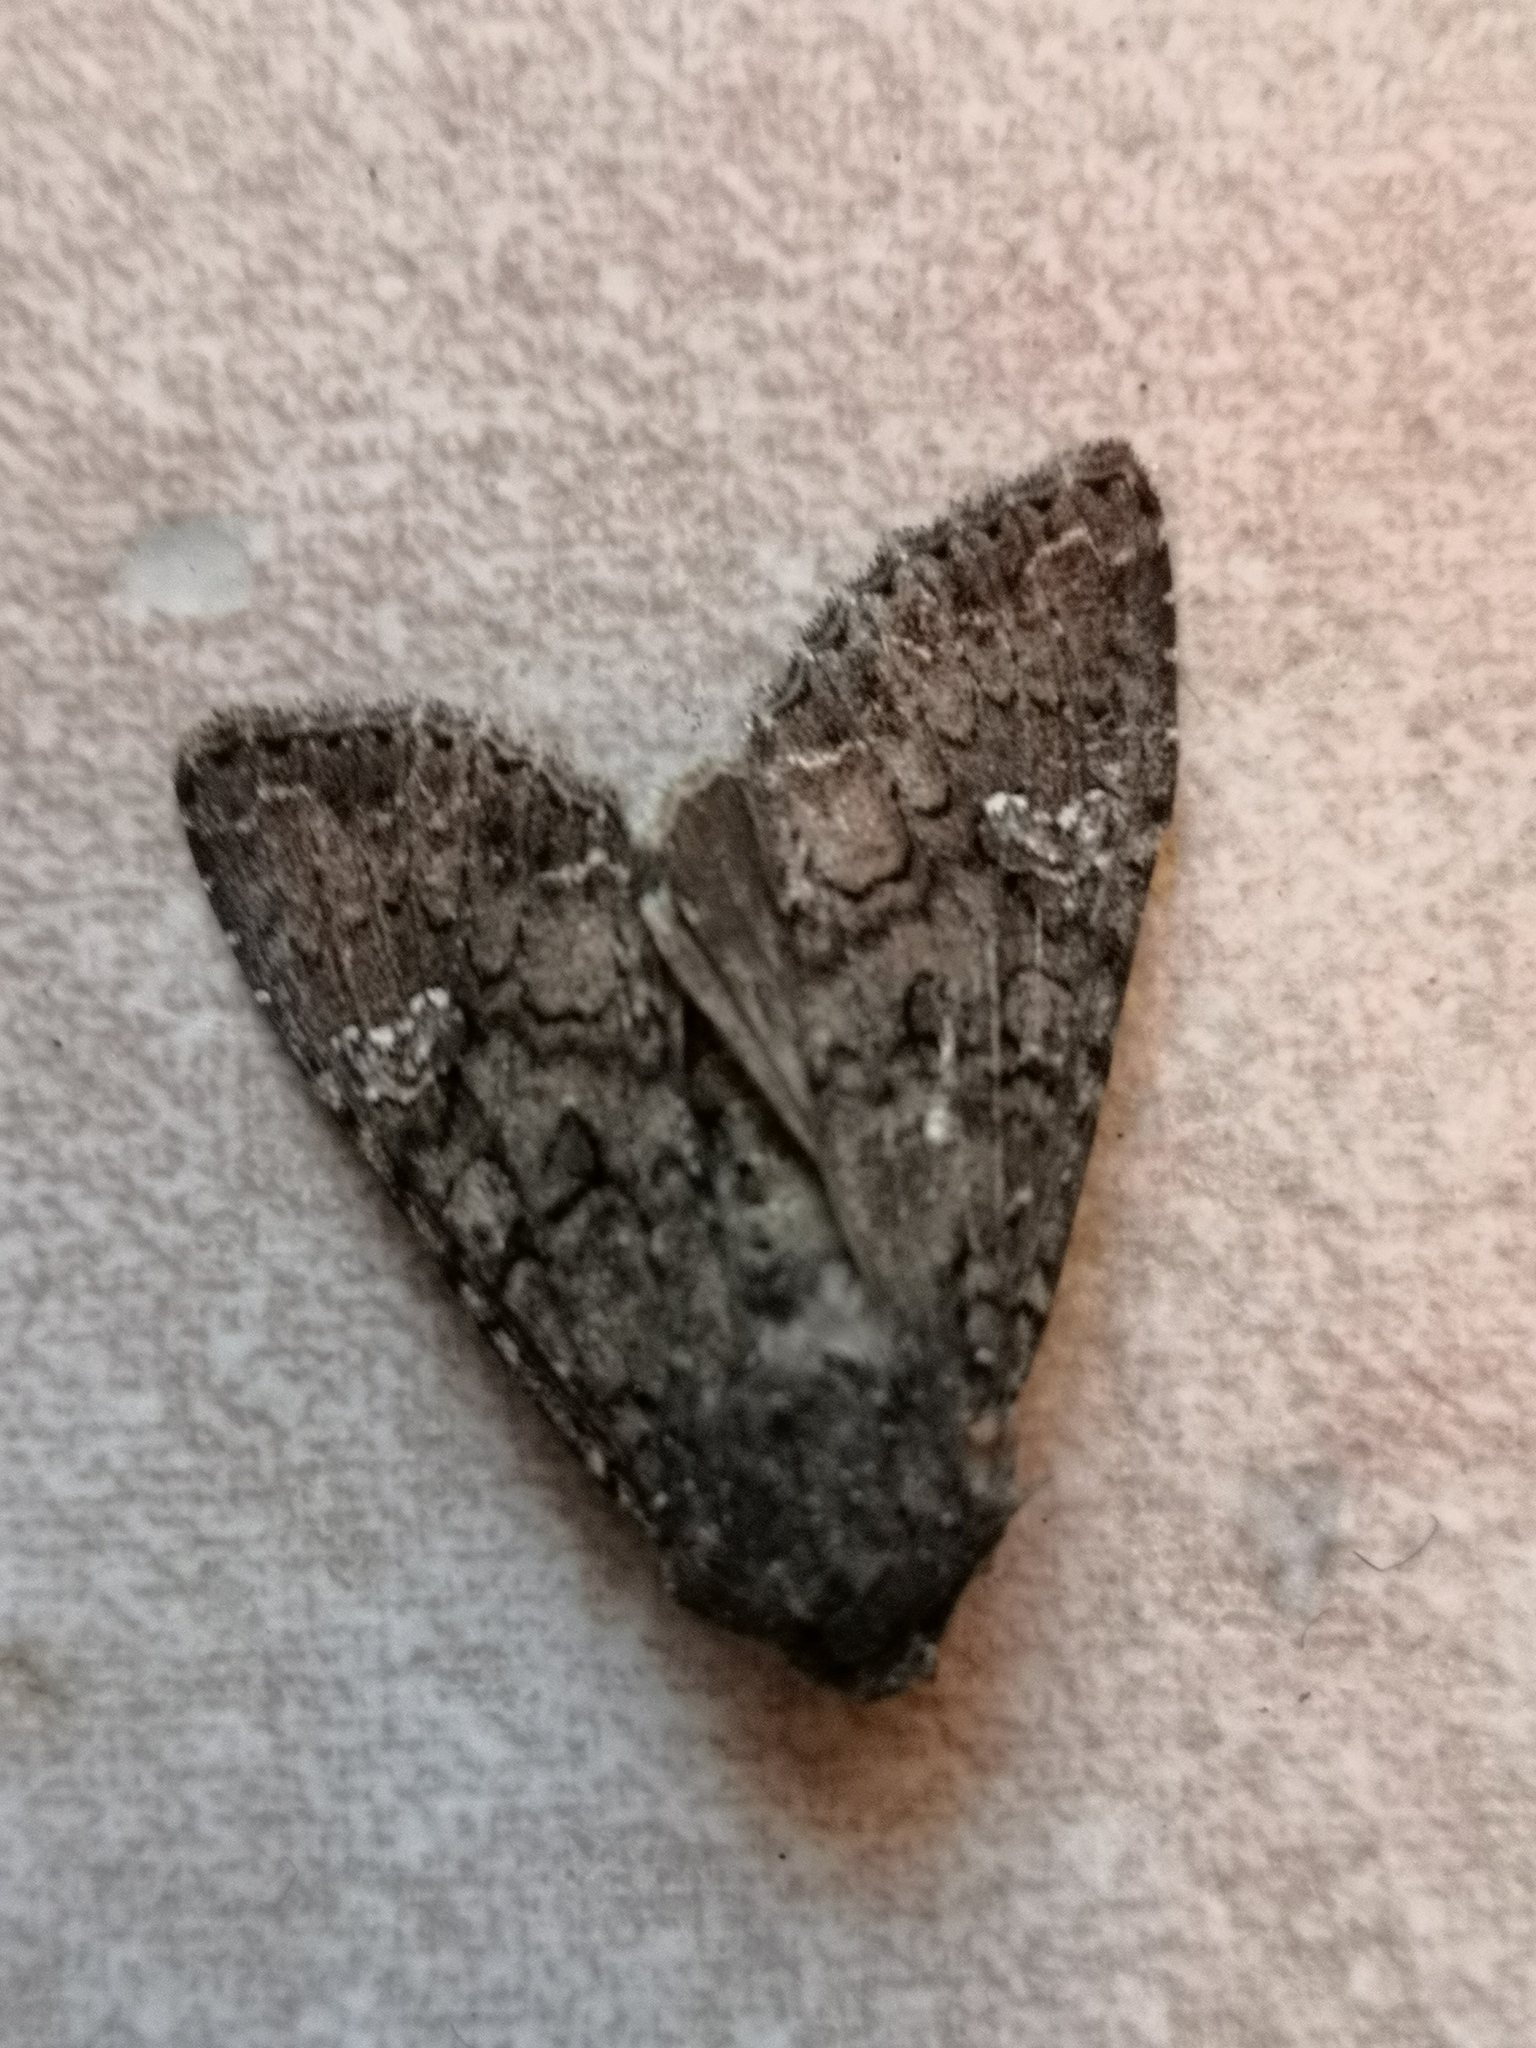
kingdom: Animalia
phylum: Arthropoda
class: Insecta
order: Lepidoptera
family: Noctuidae
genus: Mamestra
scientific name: Mamestra brassicae
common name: Cabbage moth
